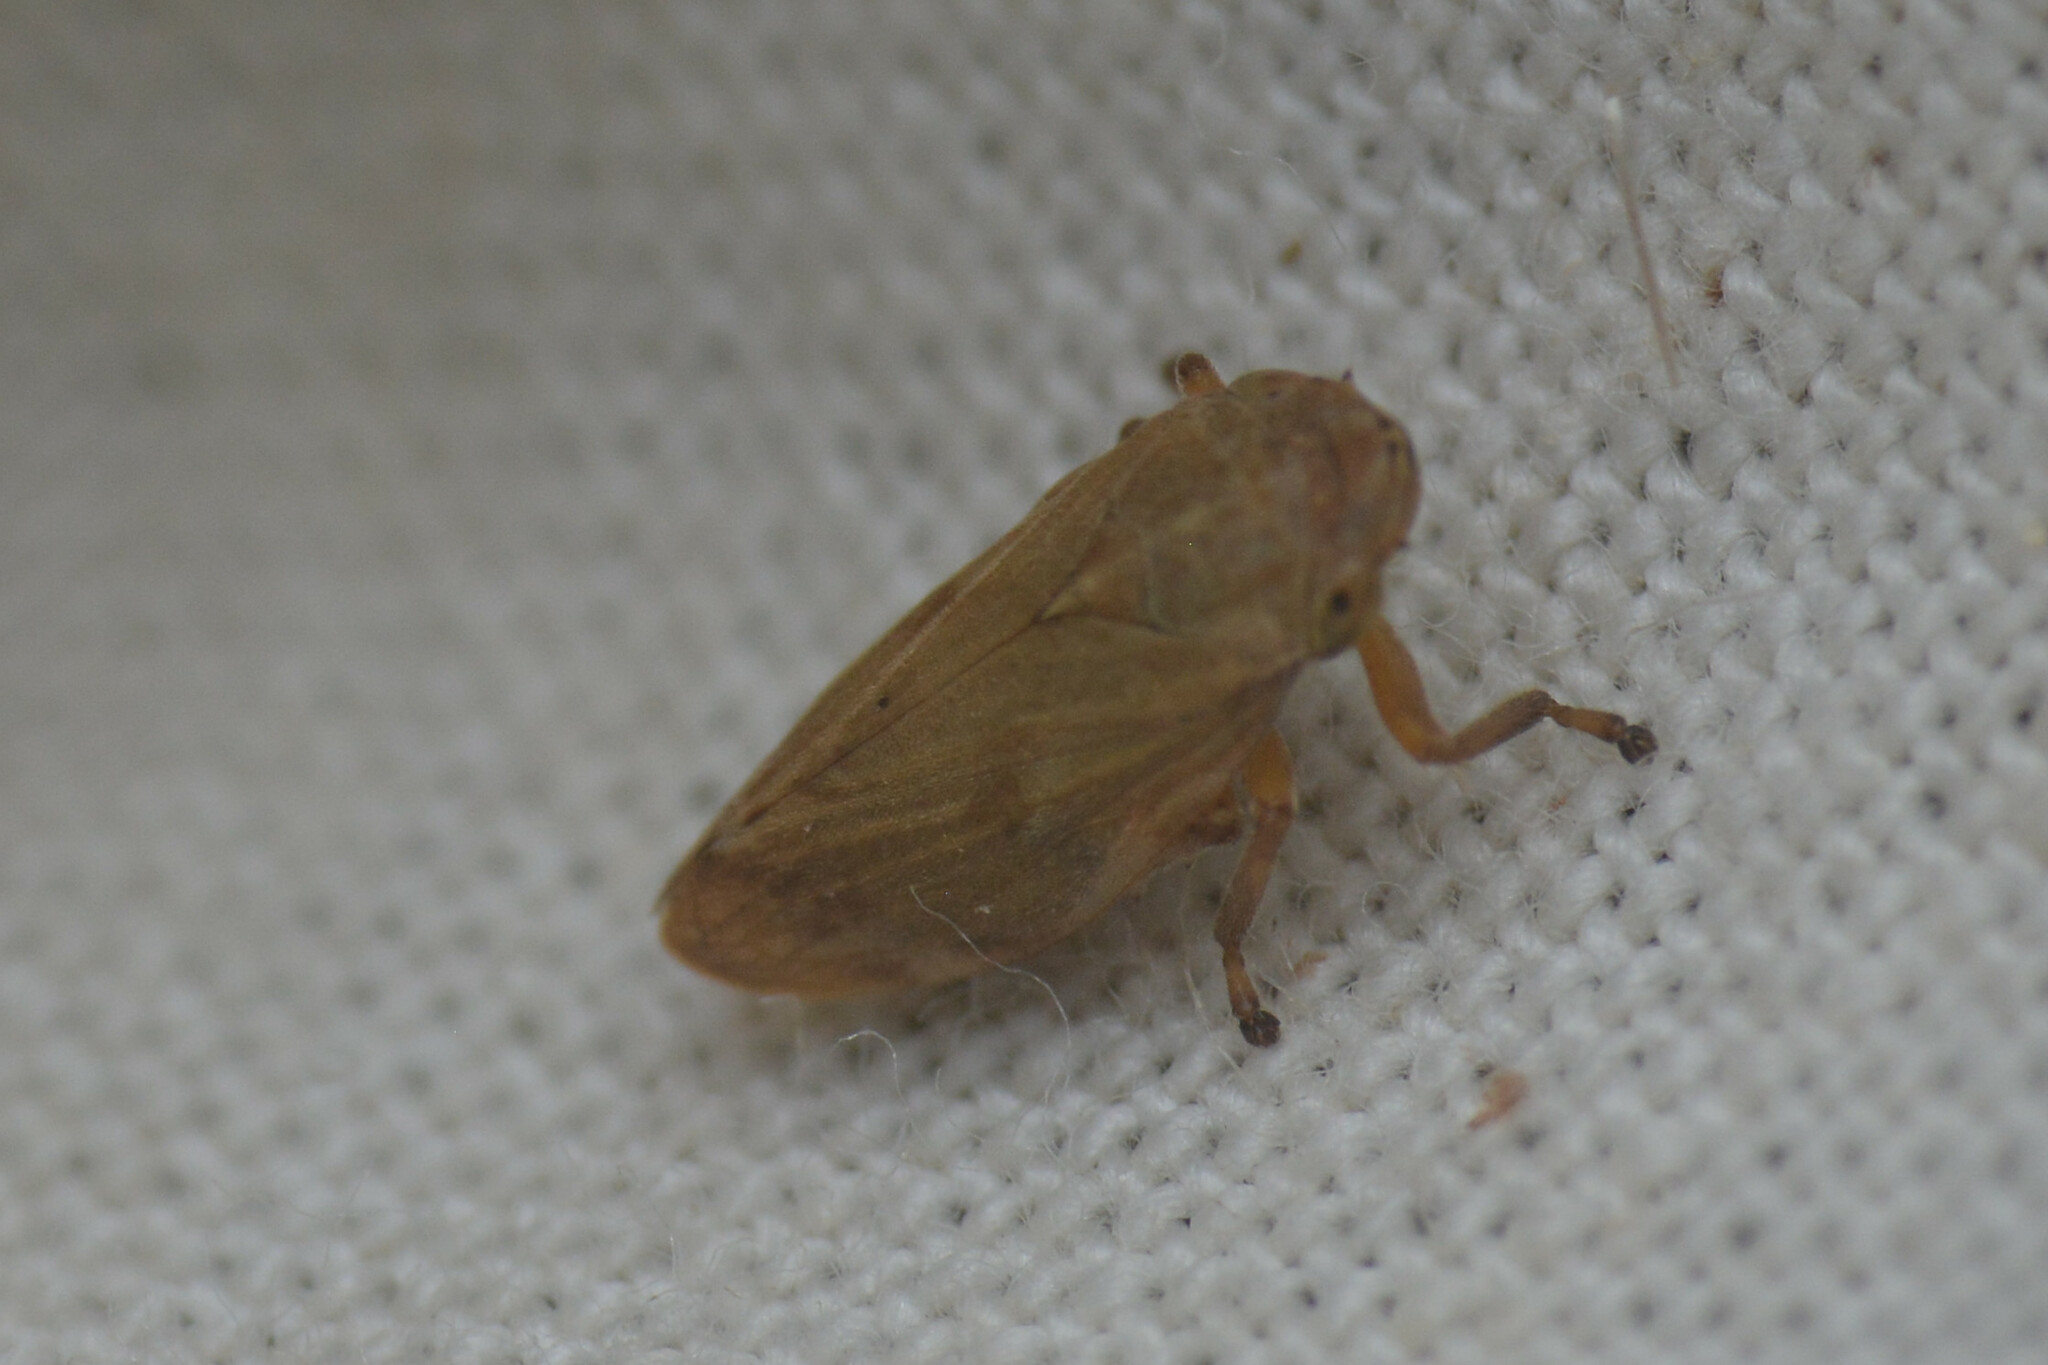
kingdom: Animalia
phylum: Arthropoda
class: Insecta
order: Hemiptera
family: Aphrophoridae
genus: Philaenus
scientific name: Philaenus spumarius
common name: Meadow spittlebug
